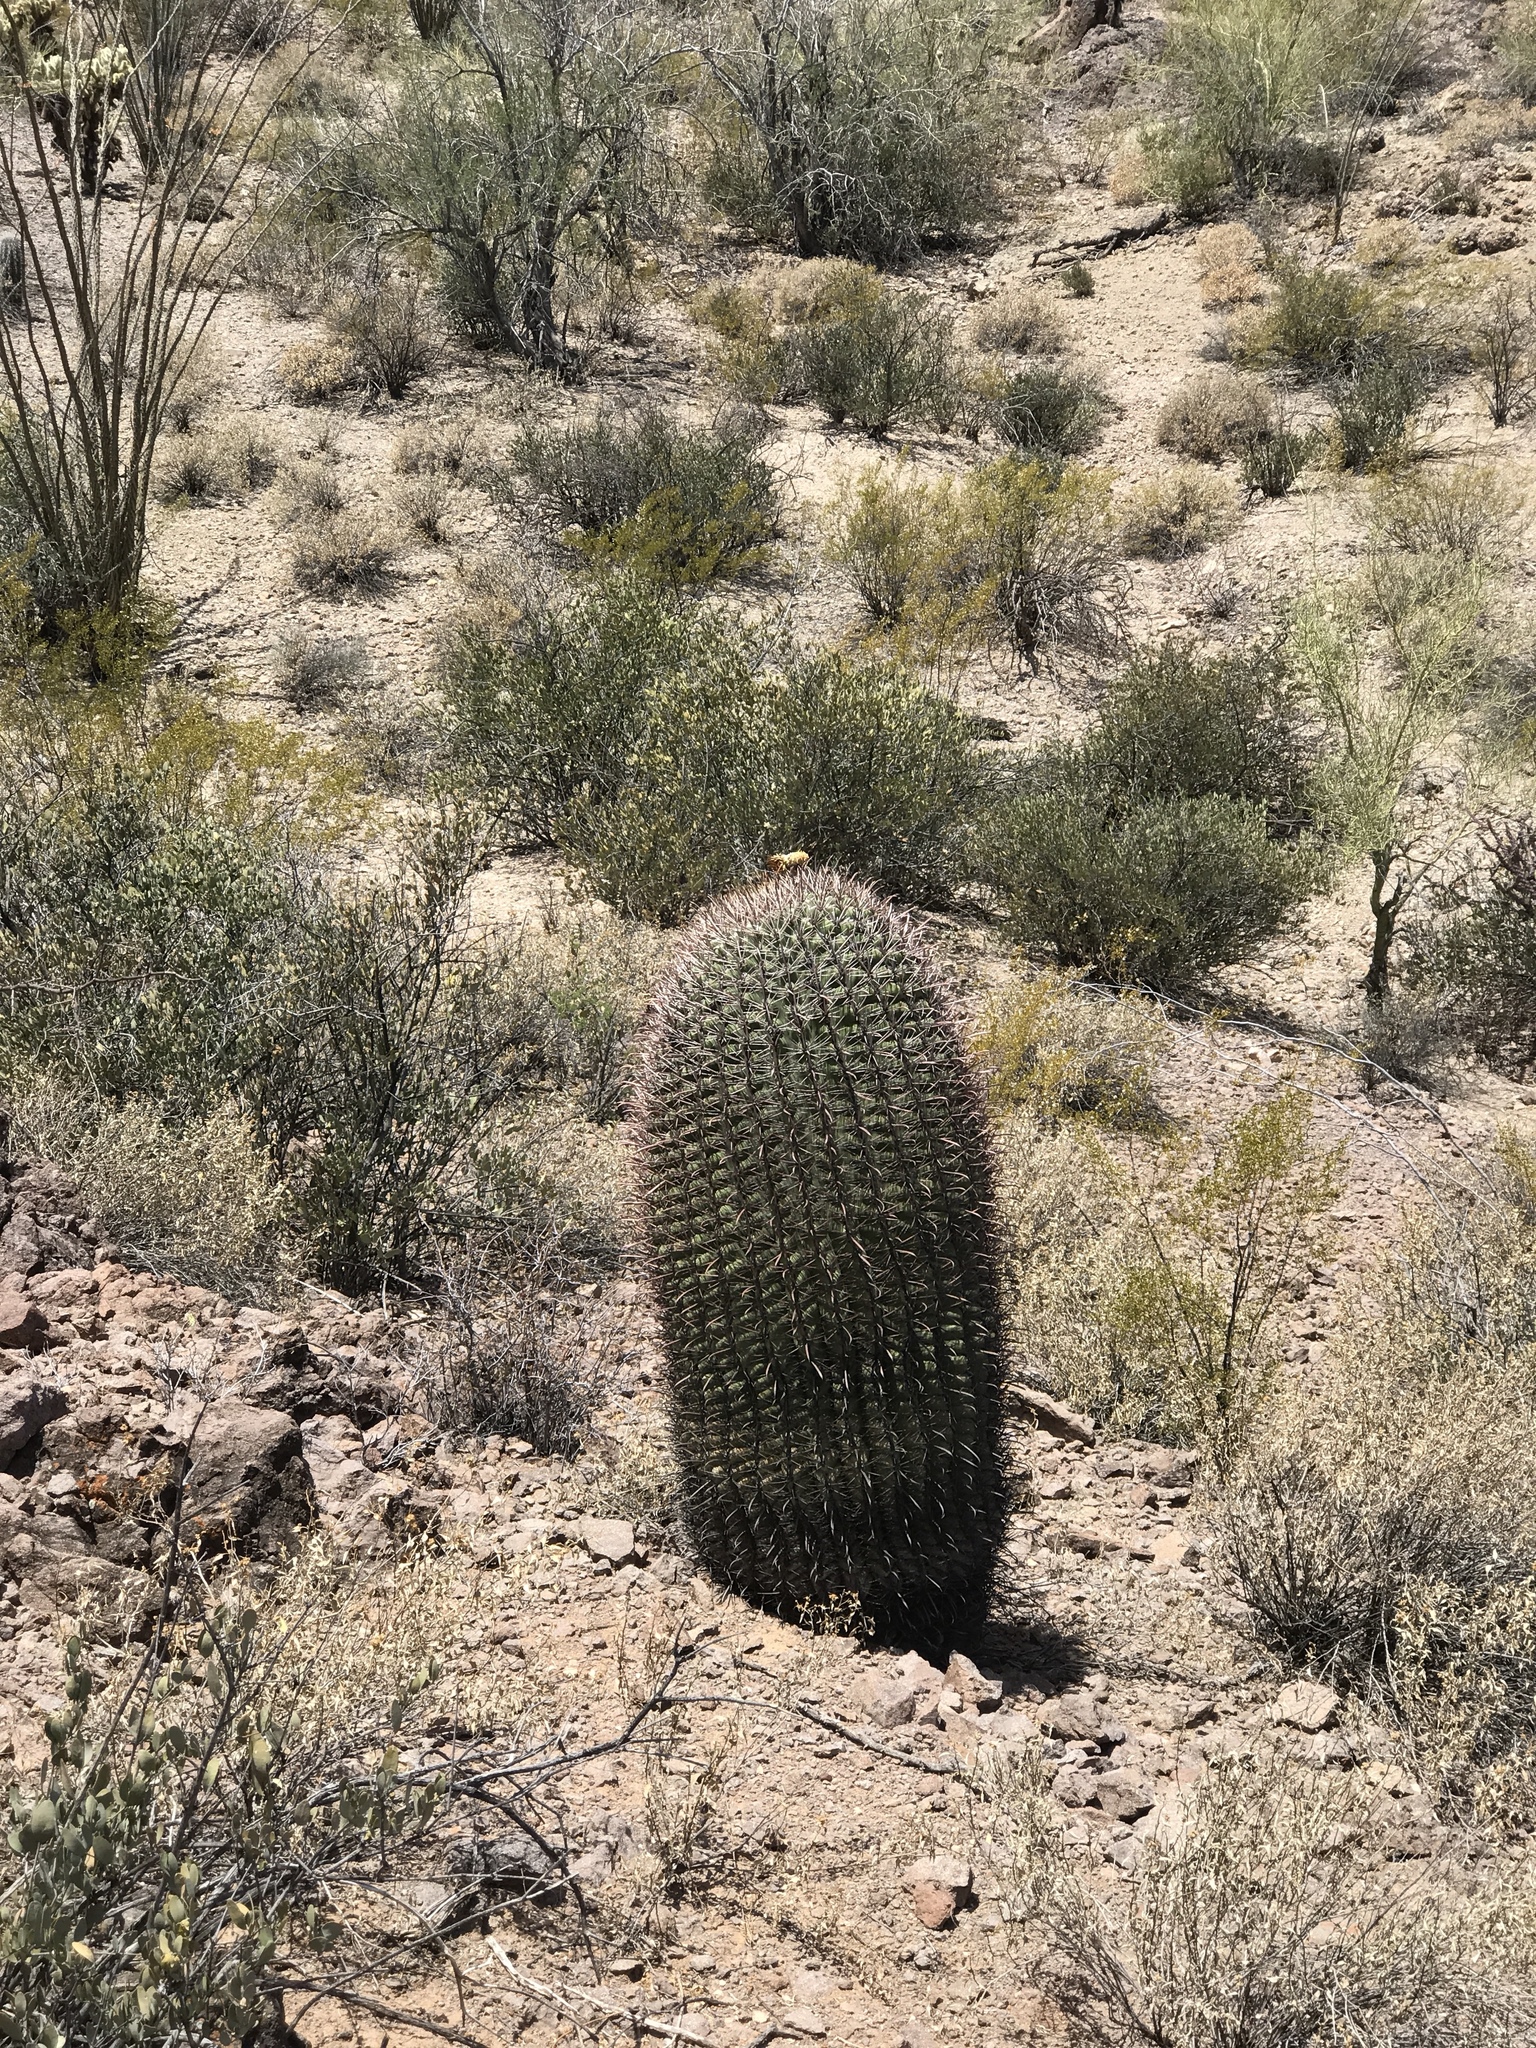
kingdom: Plantae
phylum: Tracheophyta
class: Magnoliopsida
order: Caryophyllales
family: Cactaceae
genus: Ferocactus
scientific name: Ferocactus wislizeni
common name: Candy barrel cactus
